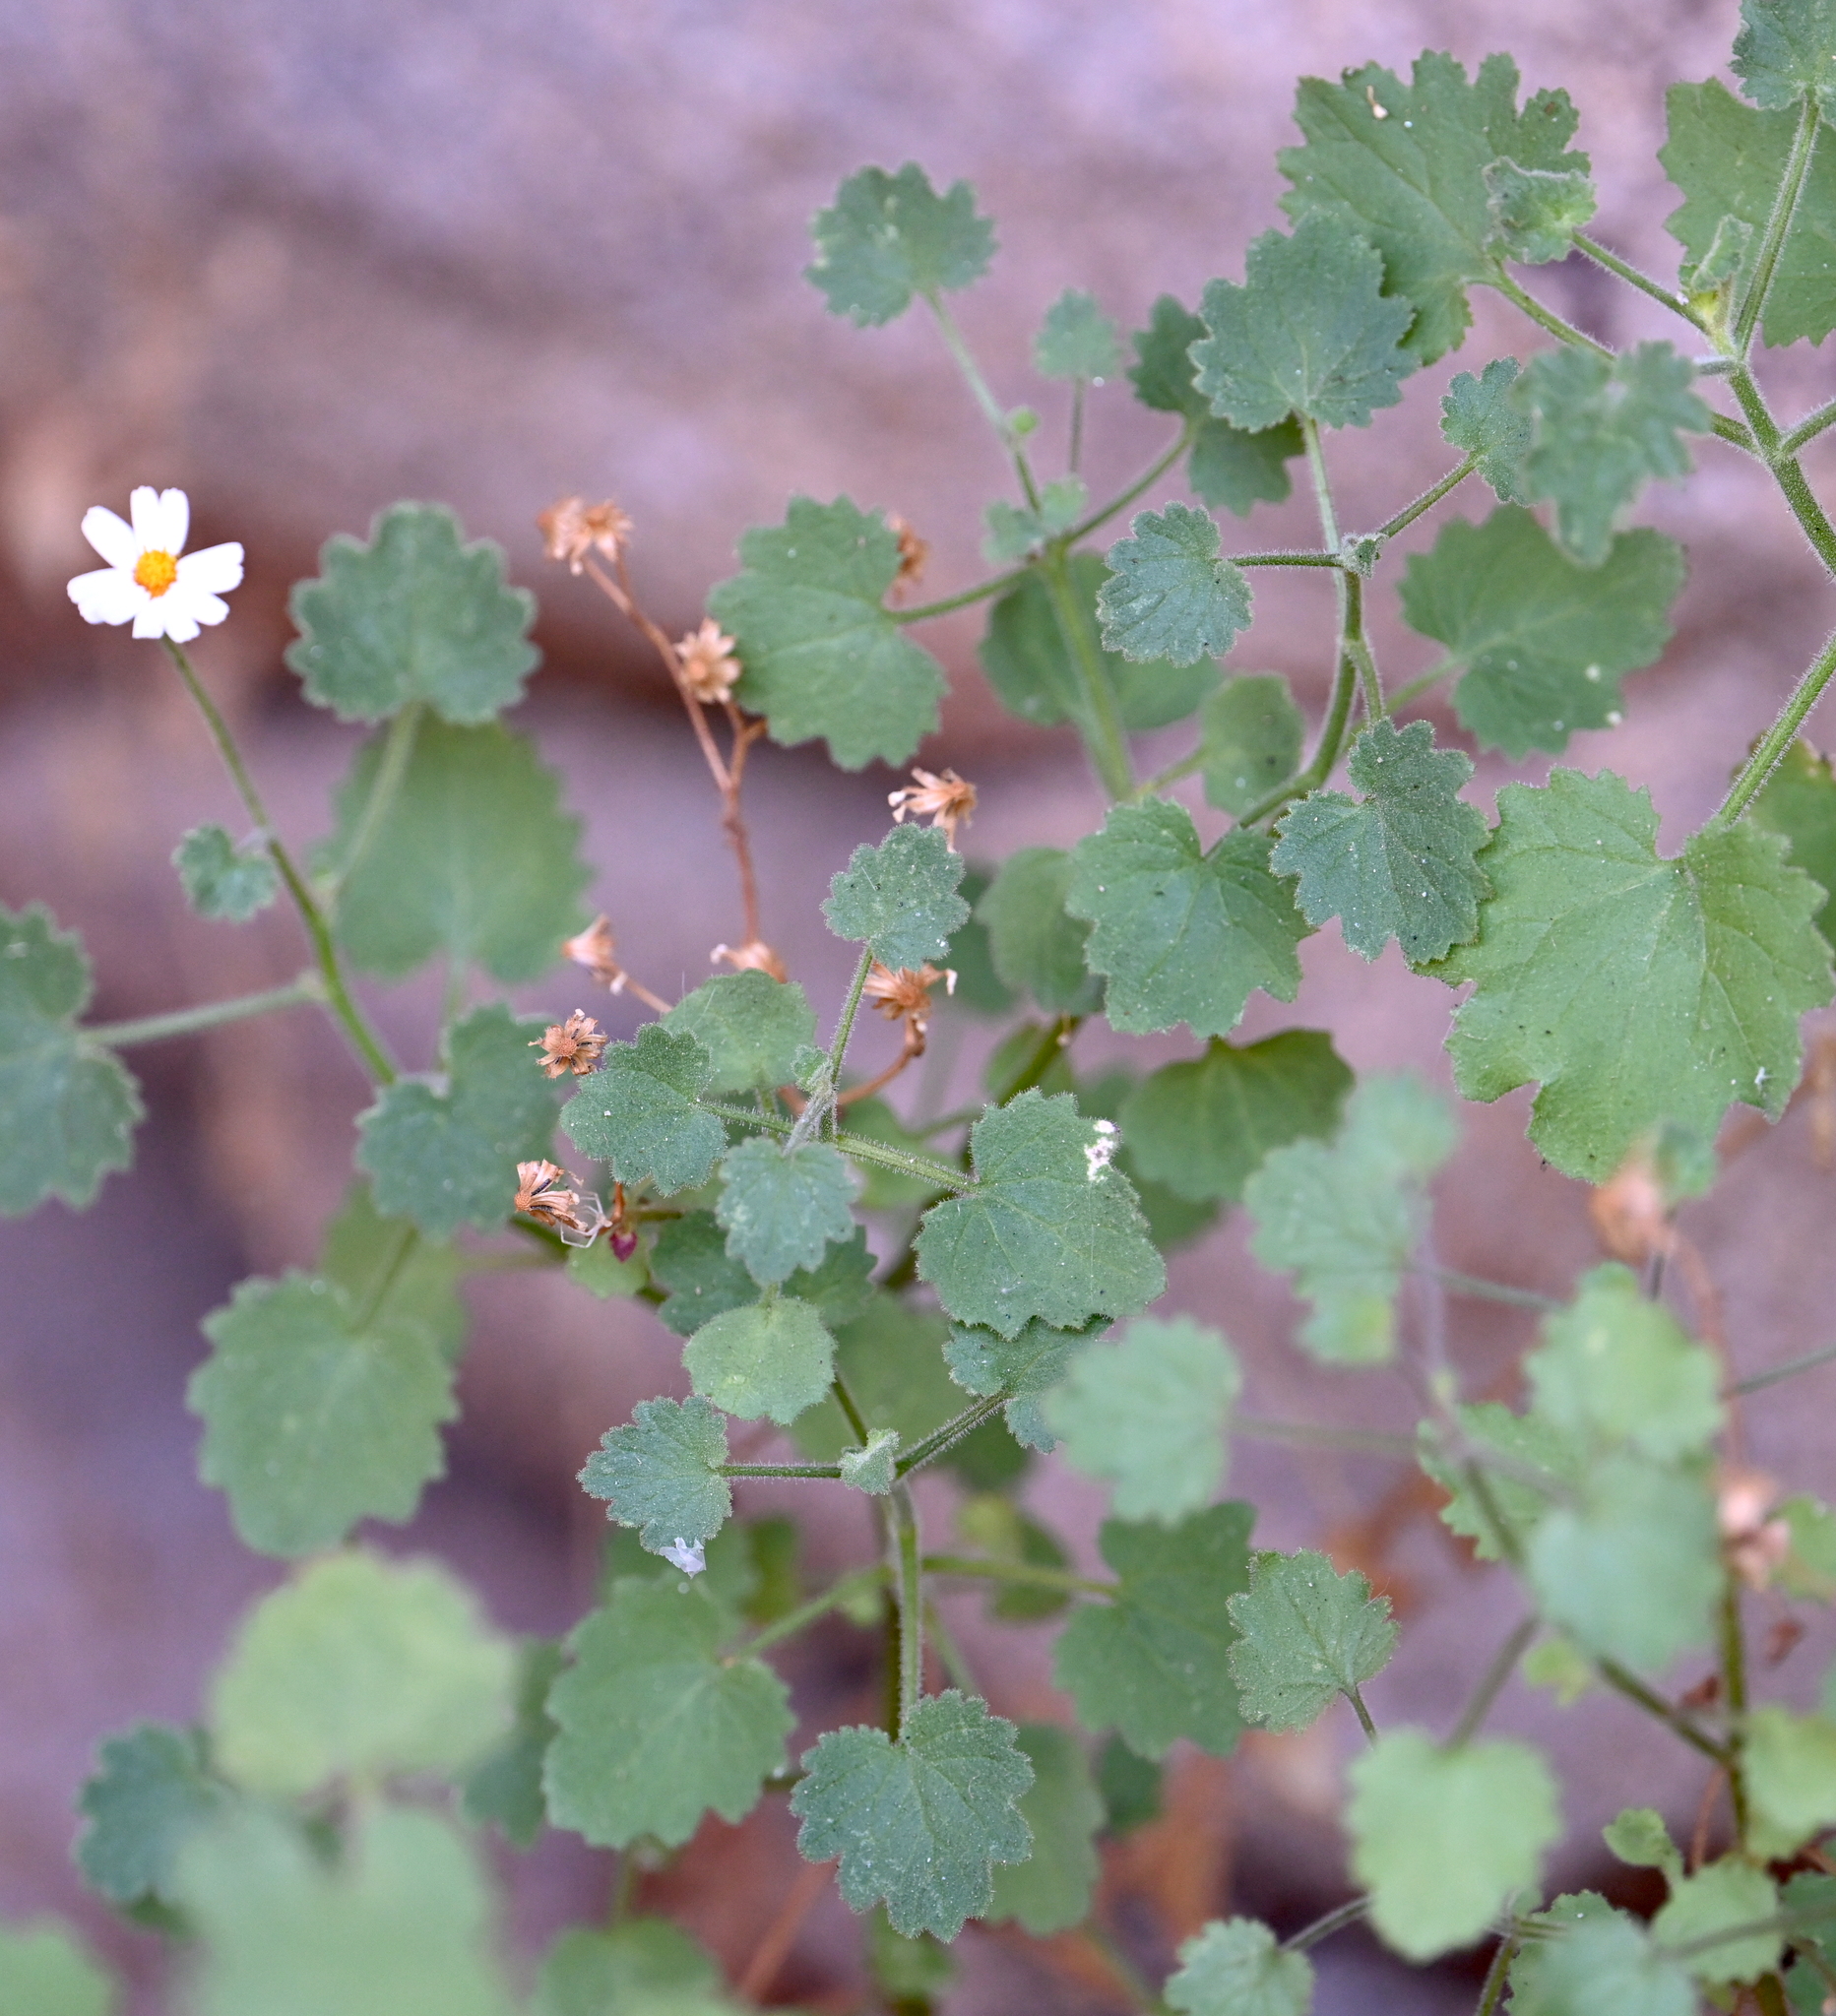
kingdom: Plantae
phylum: Tracheophyta
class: Magnoliopsida
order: Asterales
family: Asteraceae
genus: Perityle
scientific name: Perityle brandegeeana
